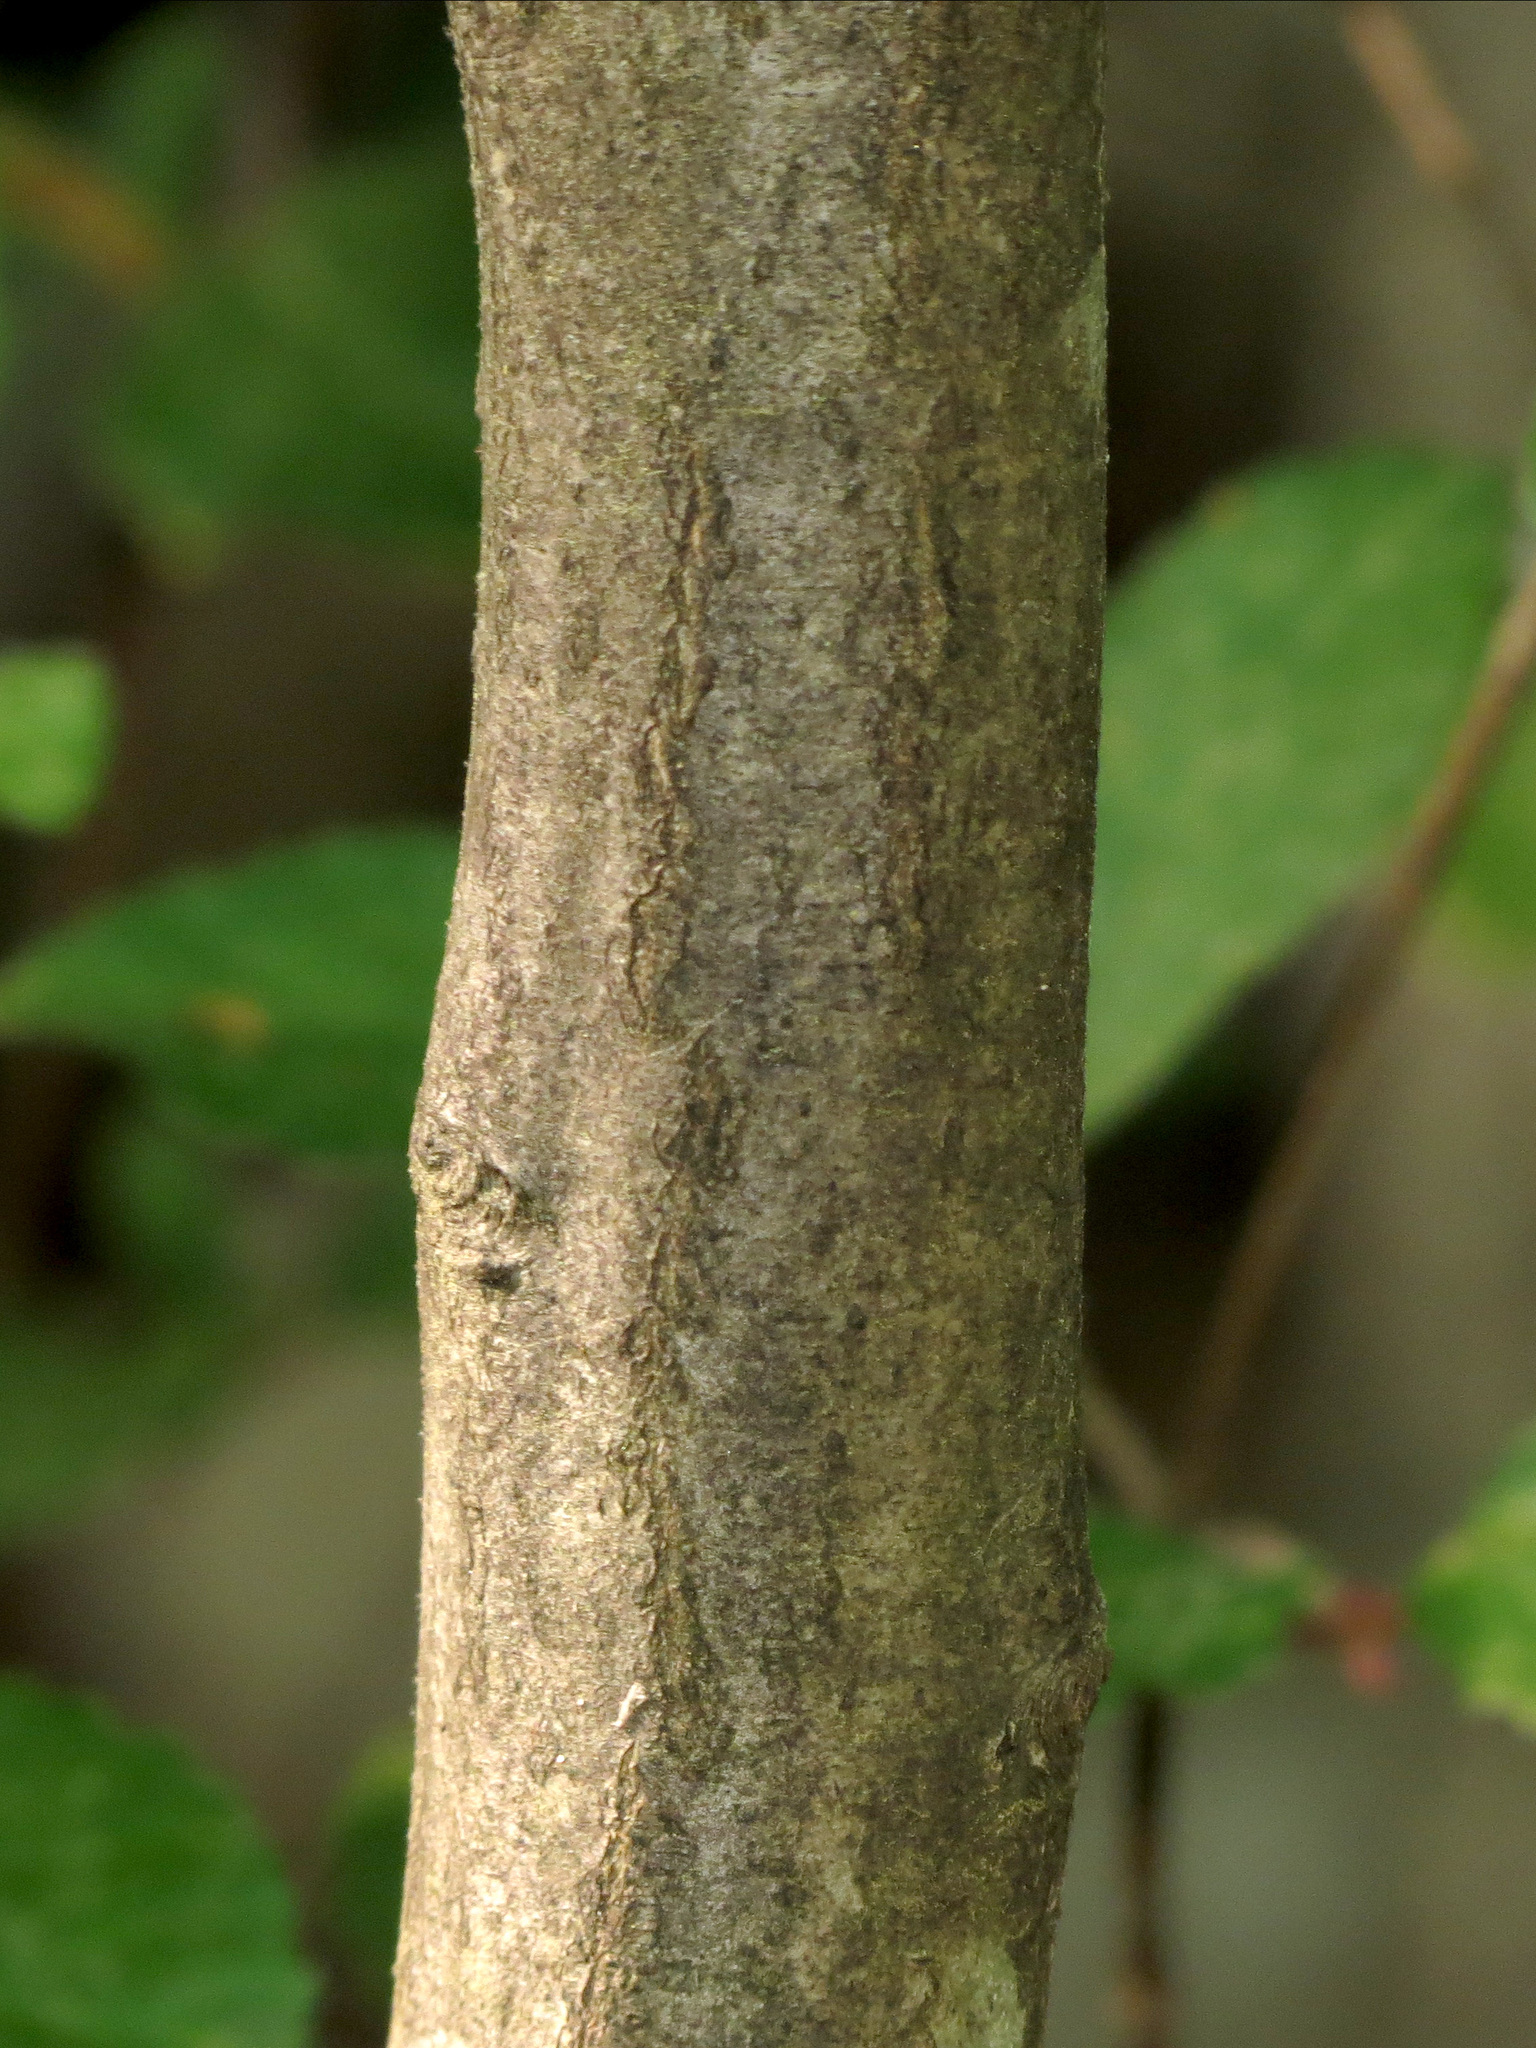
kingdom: Plantae
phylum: Tracheophyta
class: Magnoliopsida
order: Fagales
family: Betulaceae
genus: Carpinus
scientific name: Carpinus caroliniana
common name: American hornbeam
